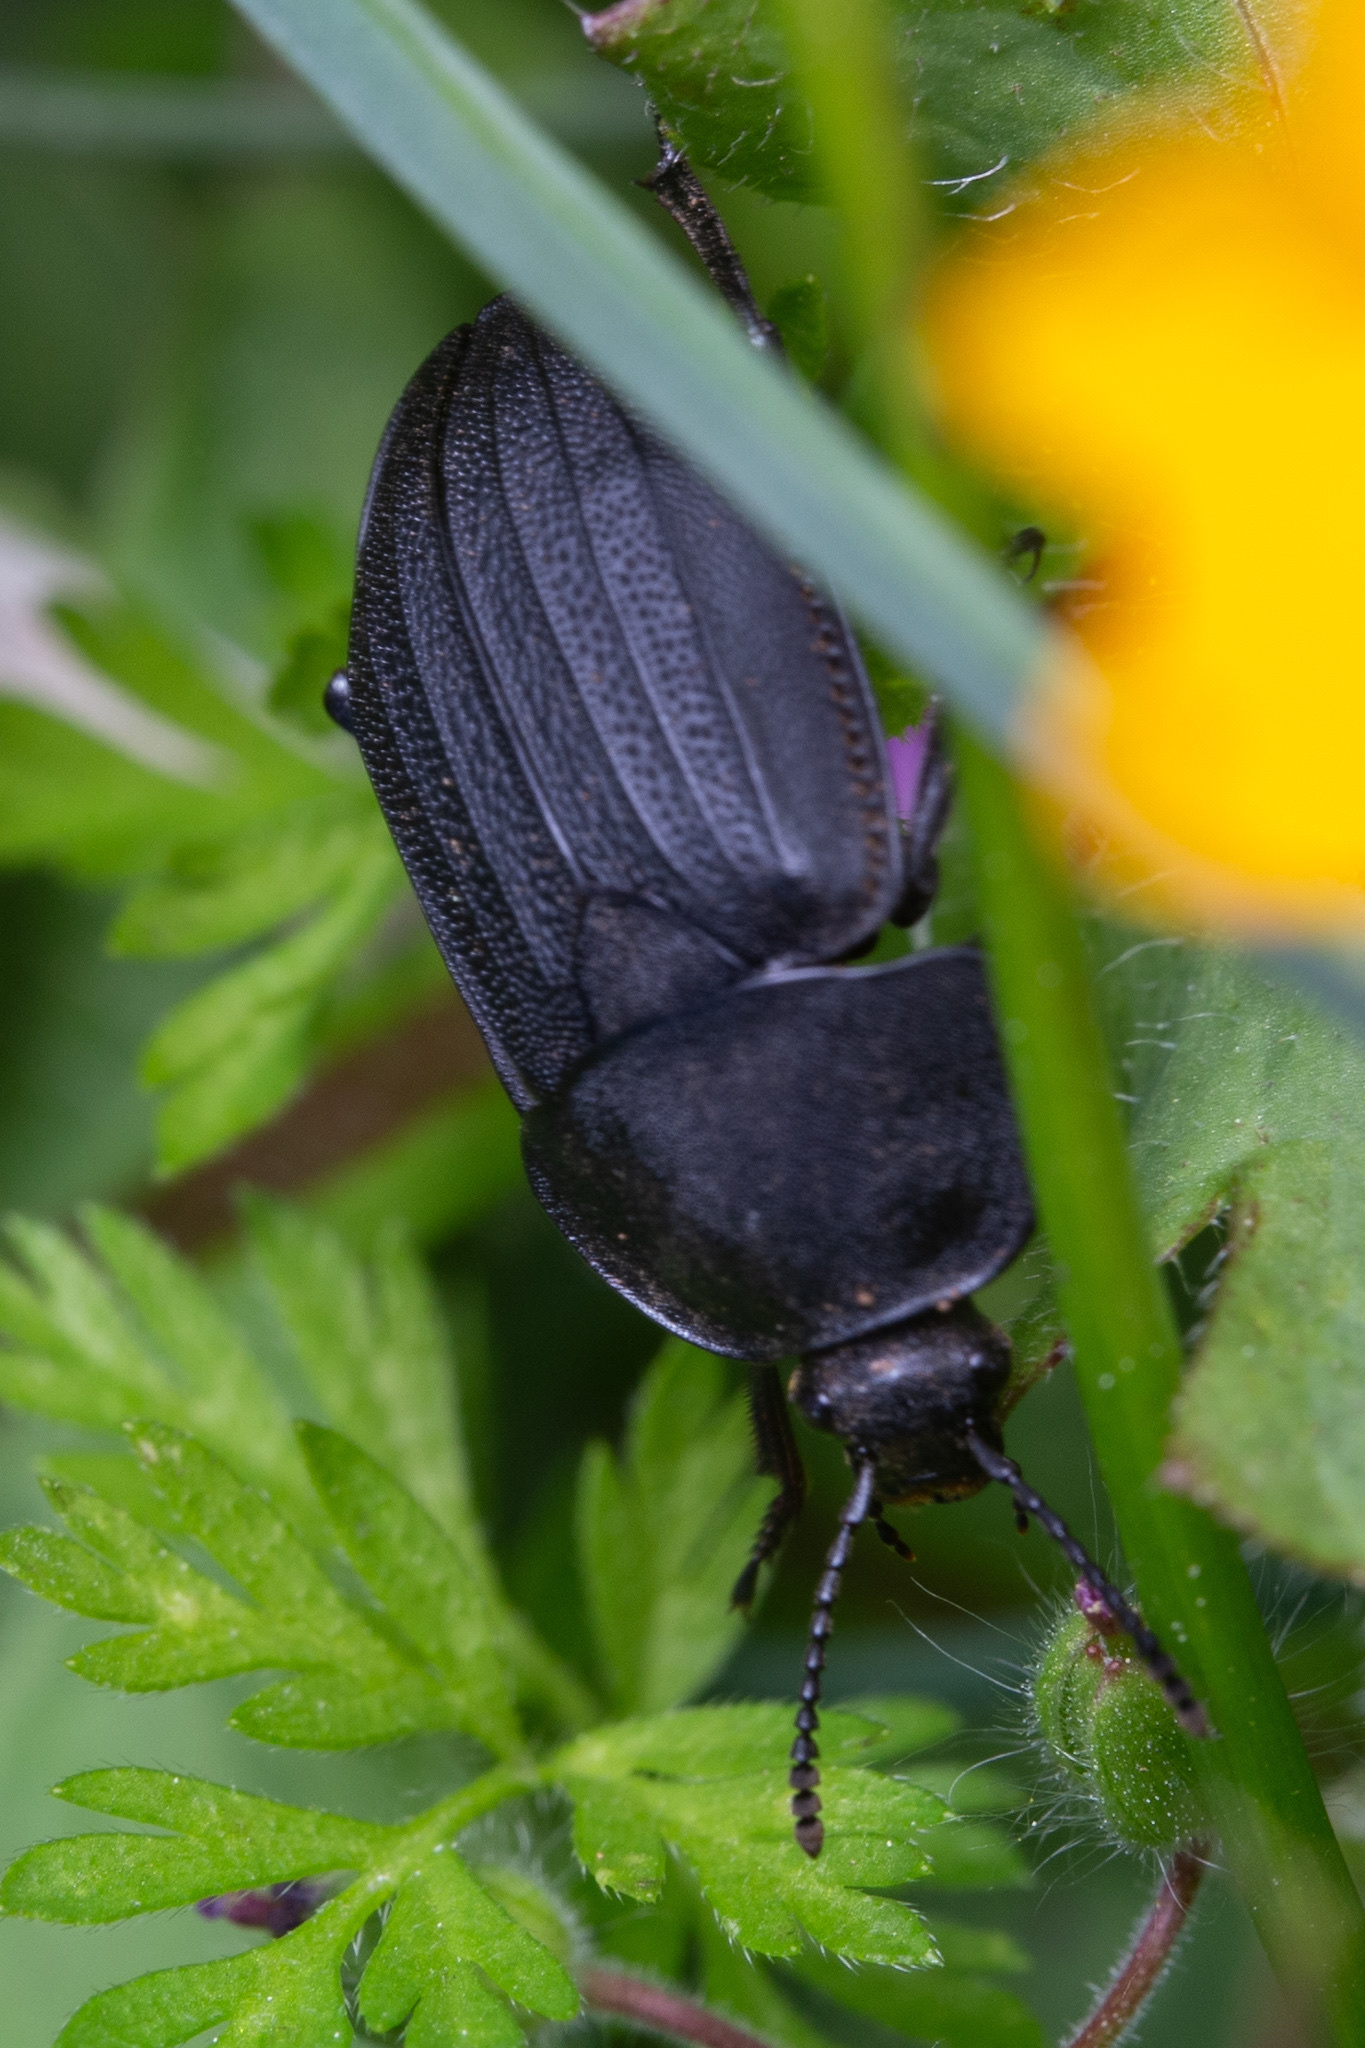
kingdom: Animalia
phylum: Arthropoda
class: Insecta
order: Coleoptera
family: Staphylinidae
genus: Silpha
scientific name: Silpha obscura
